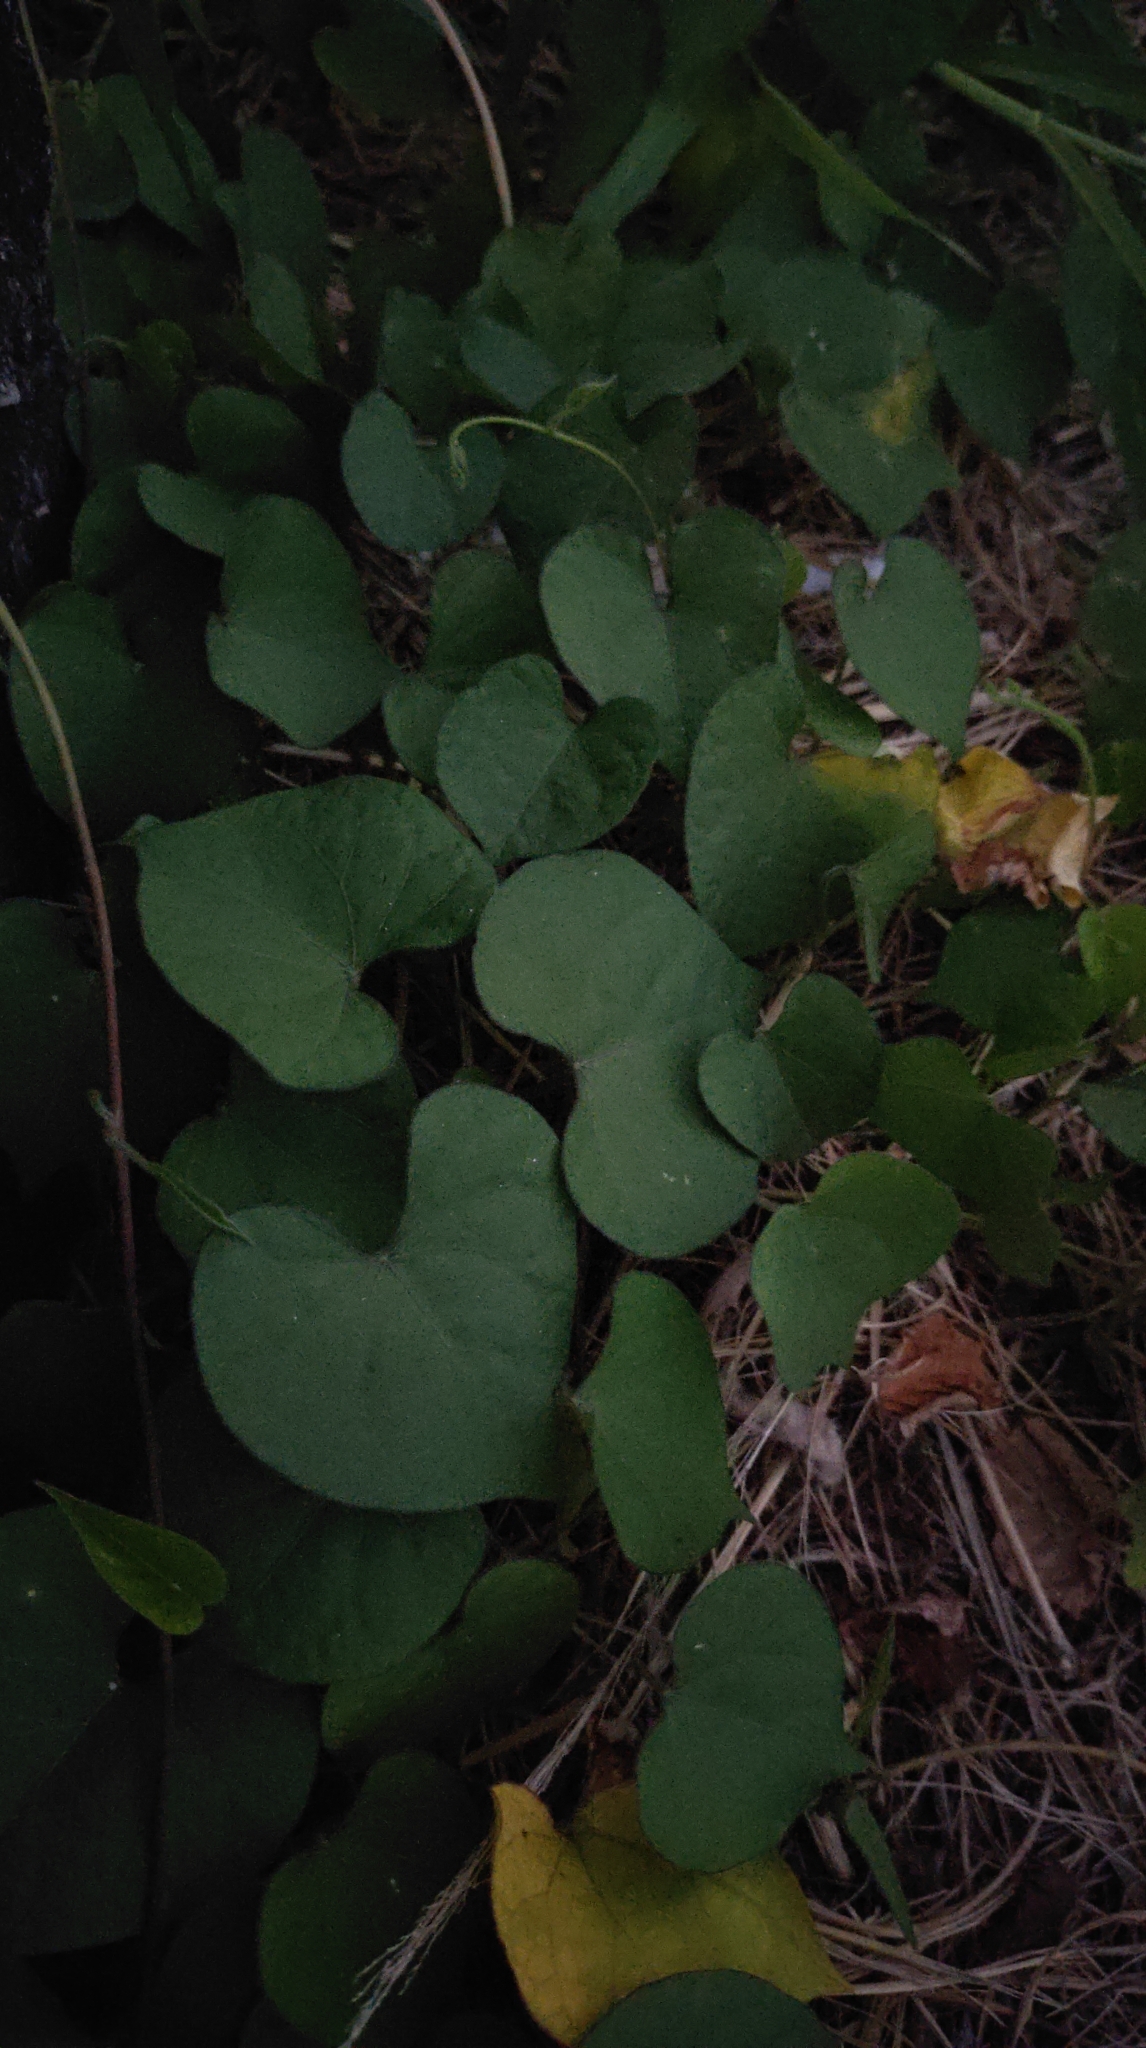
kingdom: Plantae
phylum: Tracheophyta
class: Magnoliopsida
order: Solanales
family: Convolvulaceae
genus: Ipomoea
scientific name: Ipomoea obscura
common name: Obscure morning-glory
